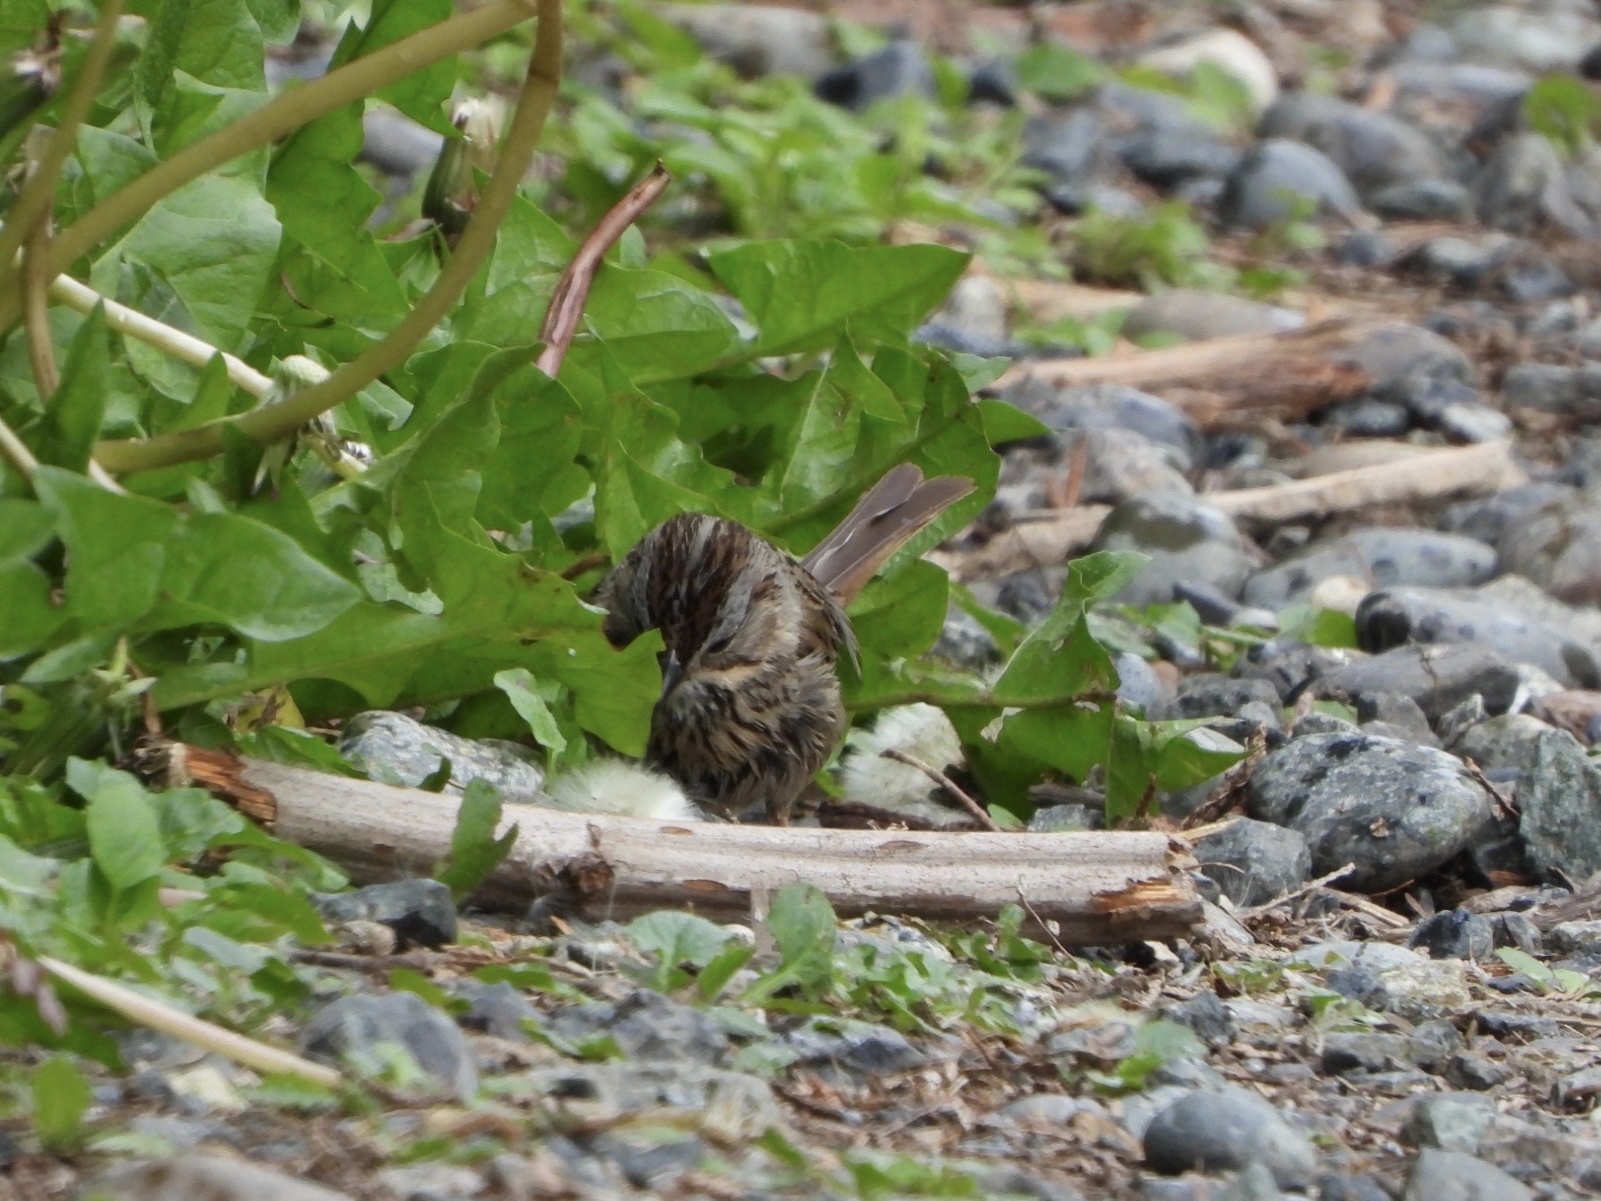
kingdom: Animalia
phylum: Chordata
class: Aves
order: Passeriformes
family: Passerellidae
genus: Melospiza
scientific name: Melospiza lincolnii
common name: Lincoln's sparrow
